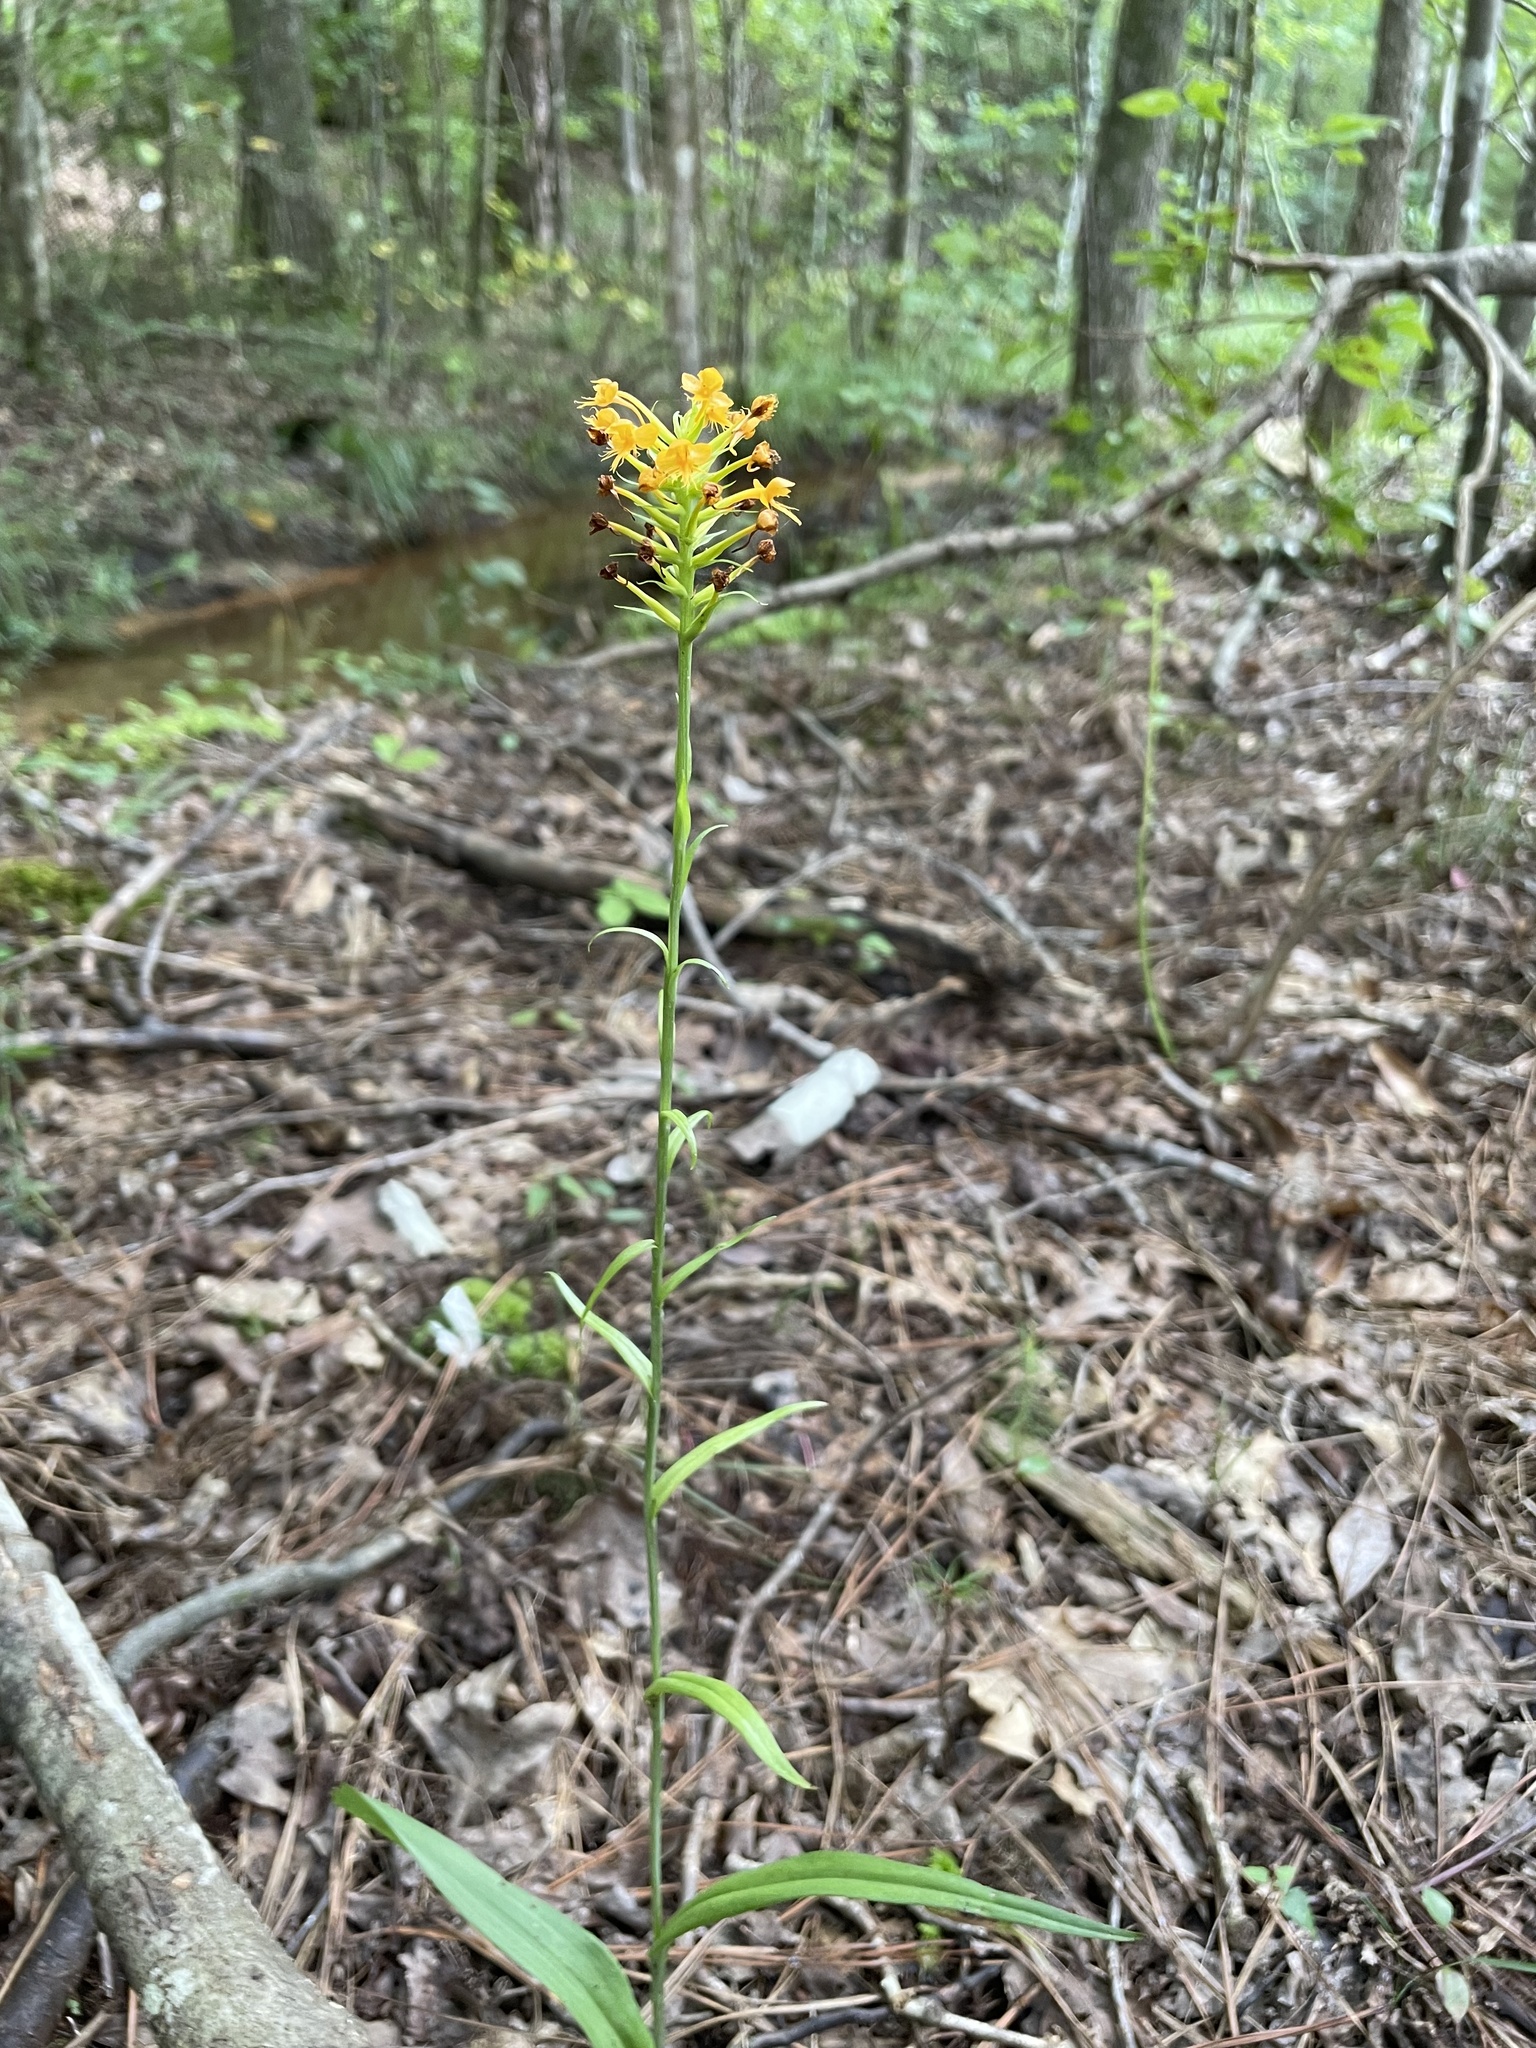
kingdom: Plantae
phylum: Tracheophyta
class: Liliopsida
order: Asparagales
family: Orchidaceae
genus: Platanthera
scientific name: Platanthera cristata
